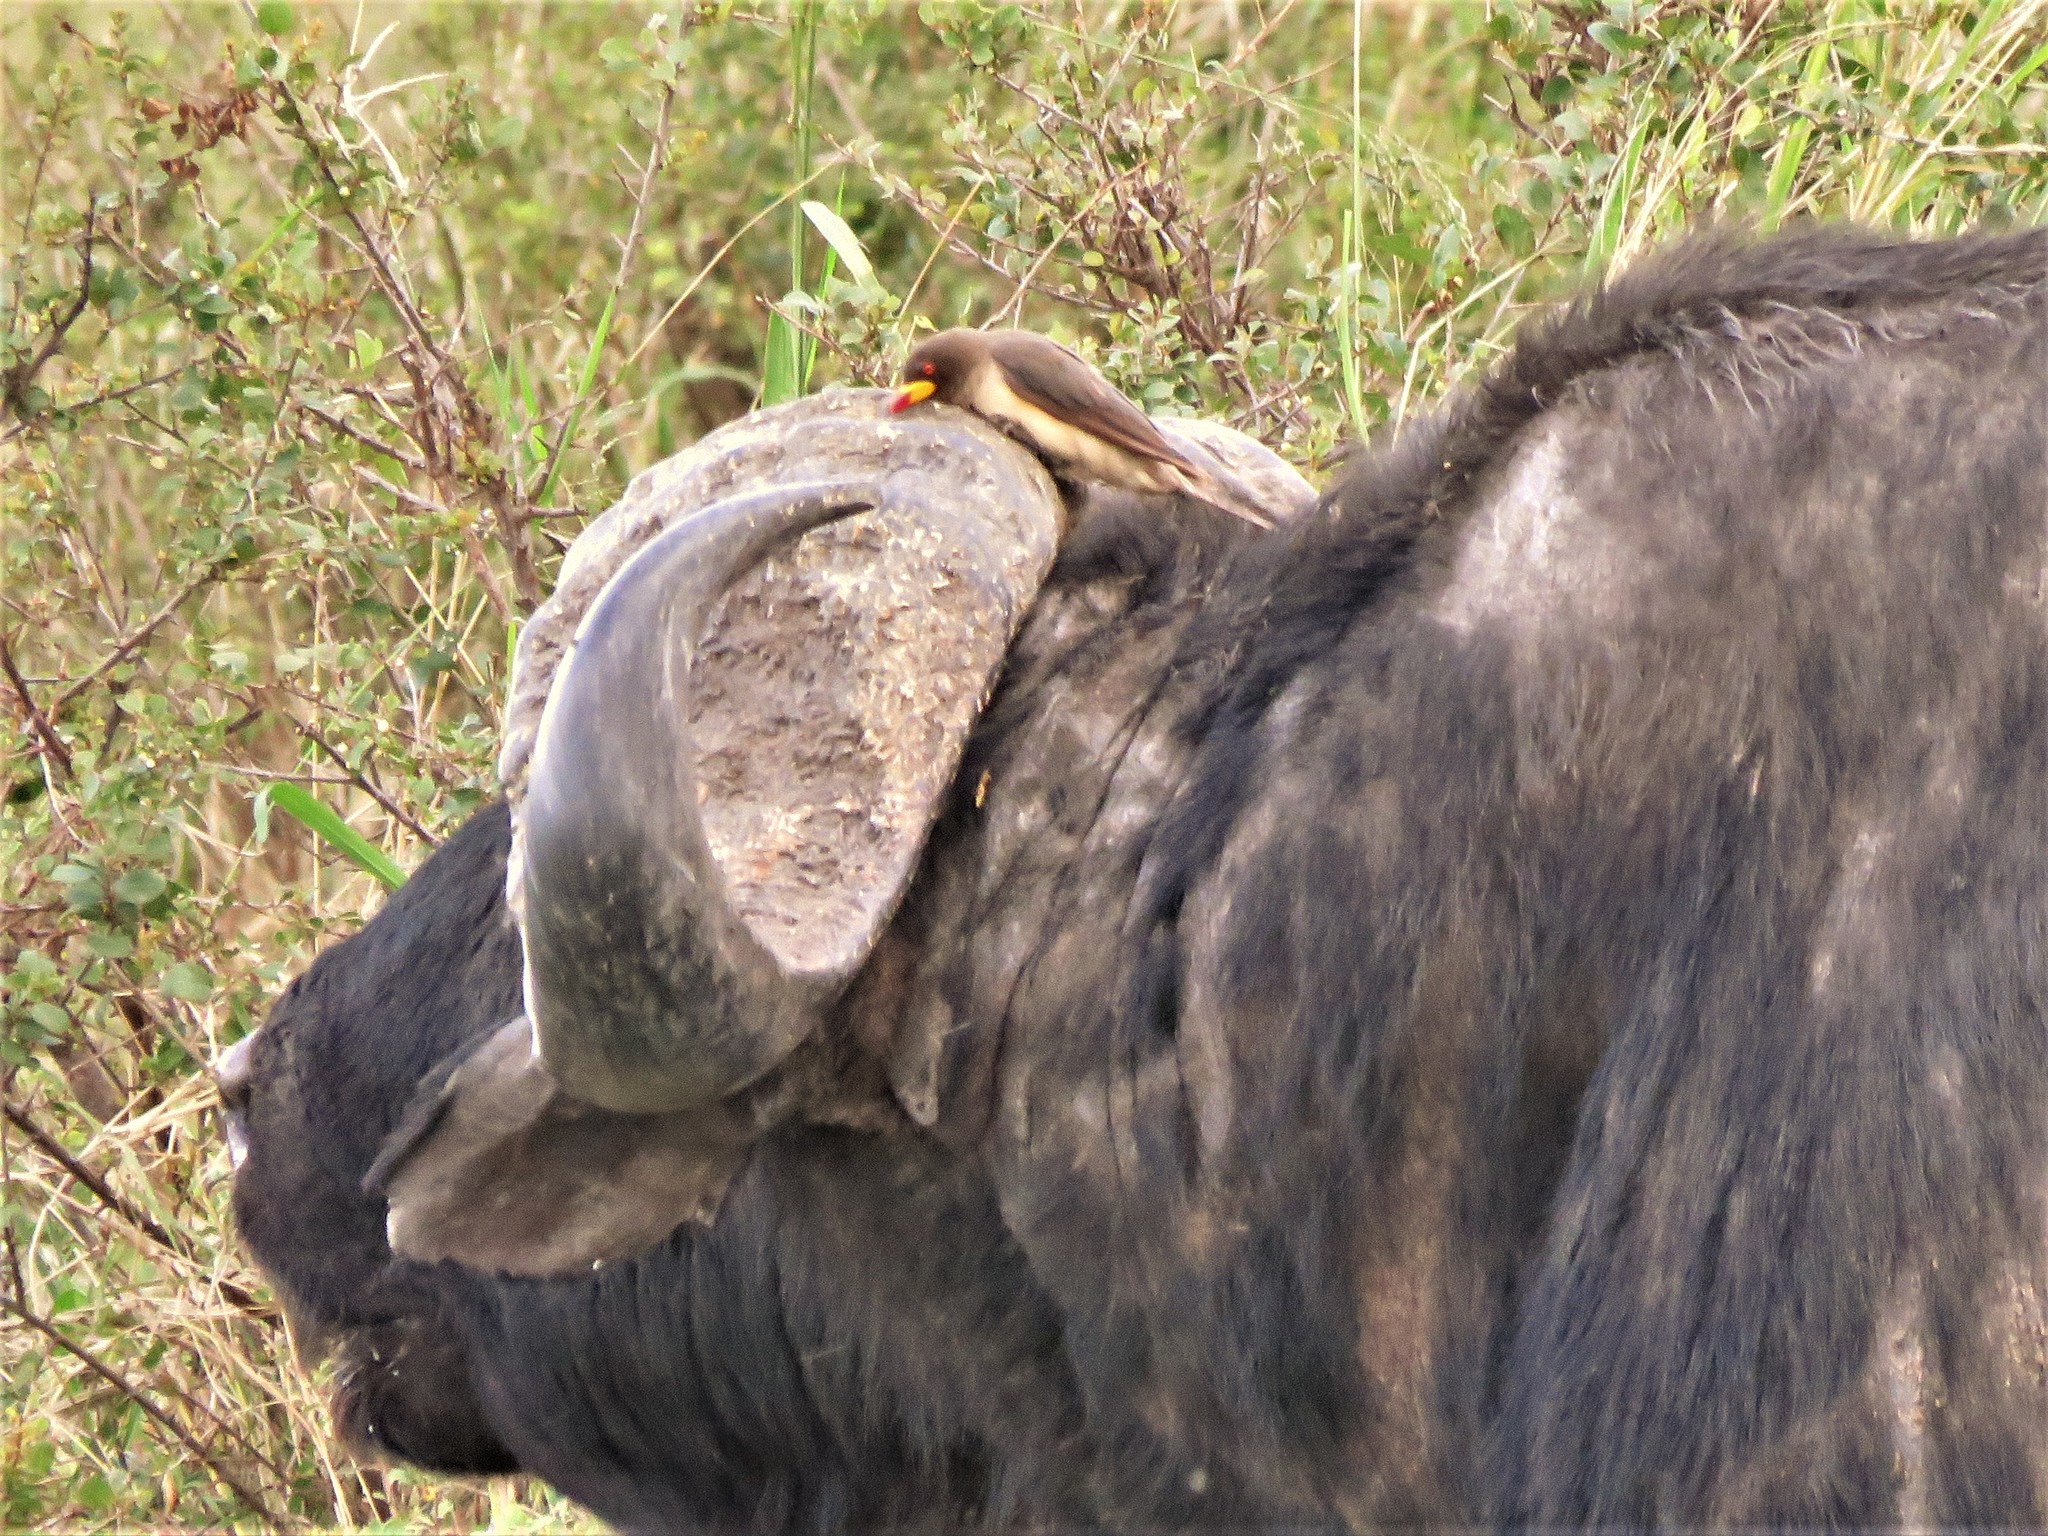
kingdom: Animalia
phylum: Chordata
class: Aves
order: Passeriformes
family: Buphagidae
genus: Buphagus
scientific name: Buphagus africanus
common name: Yellow-billed oxpecker
